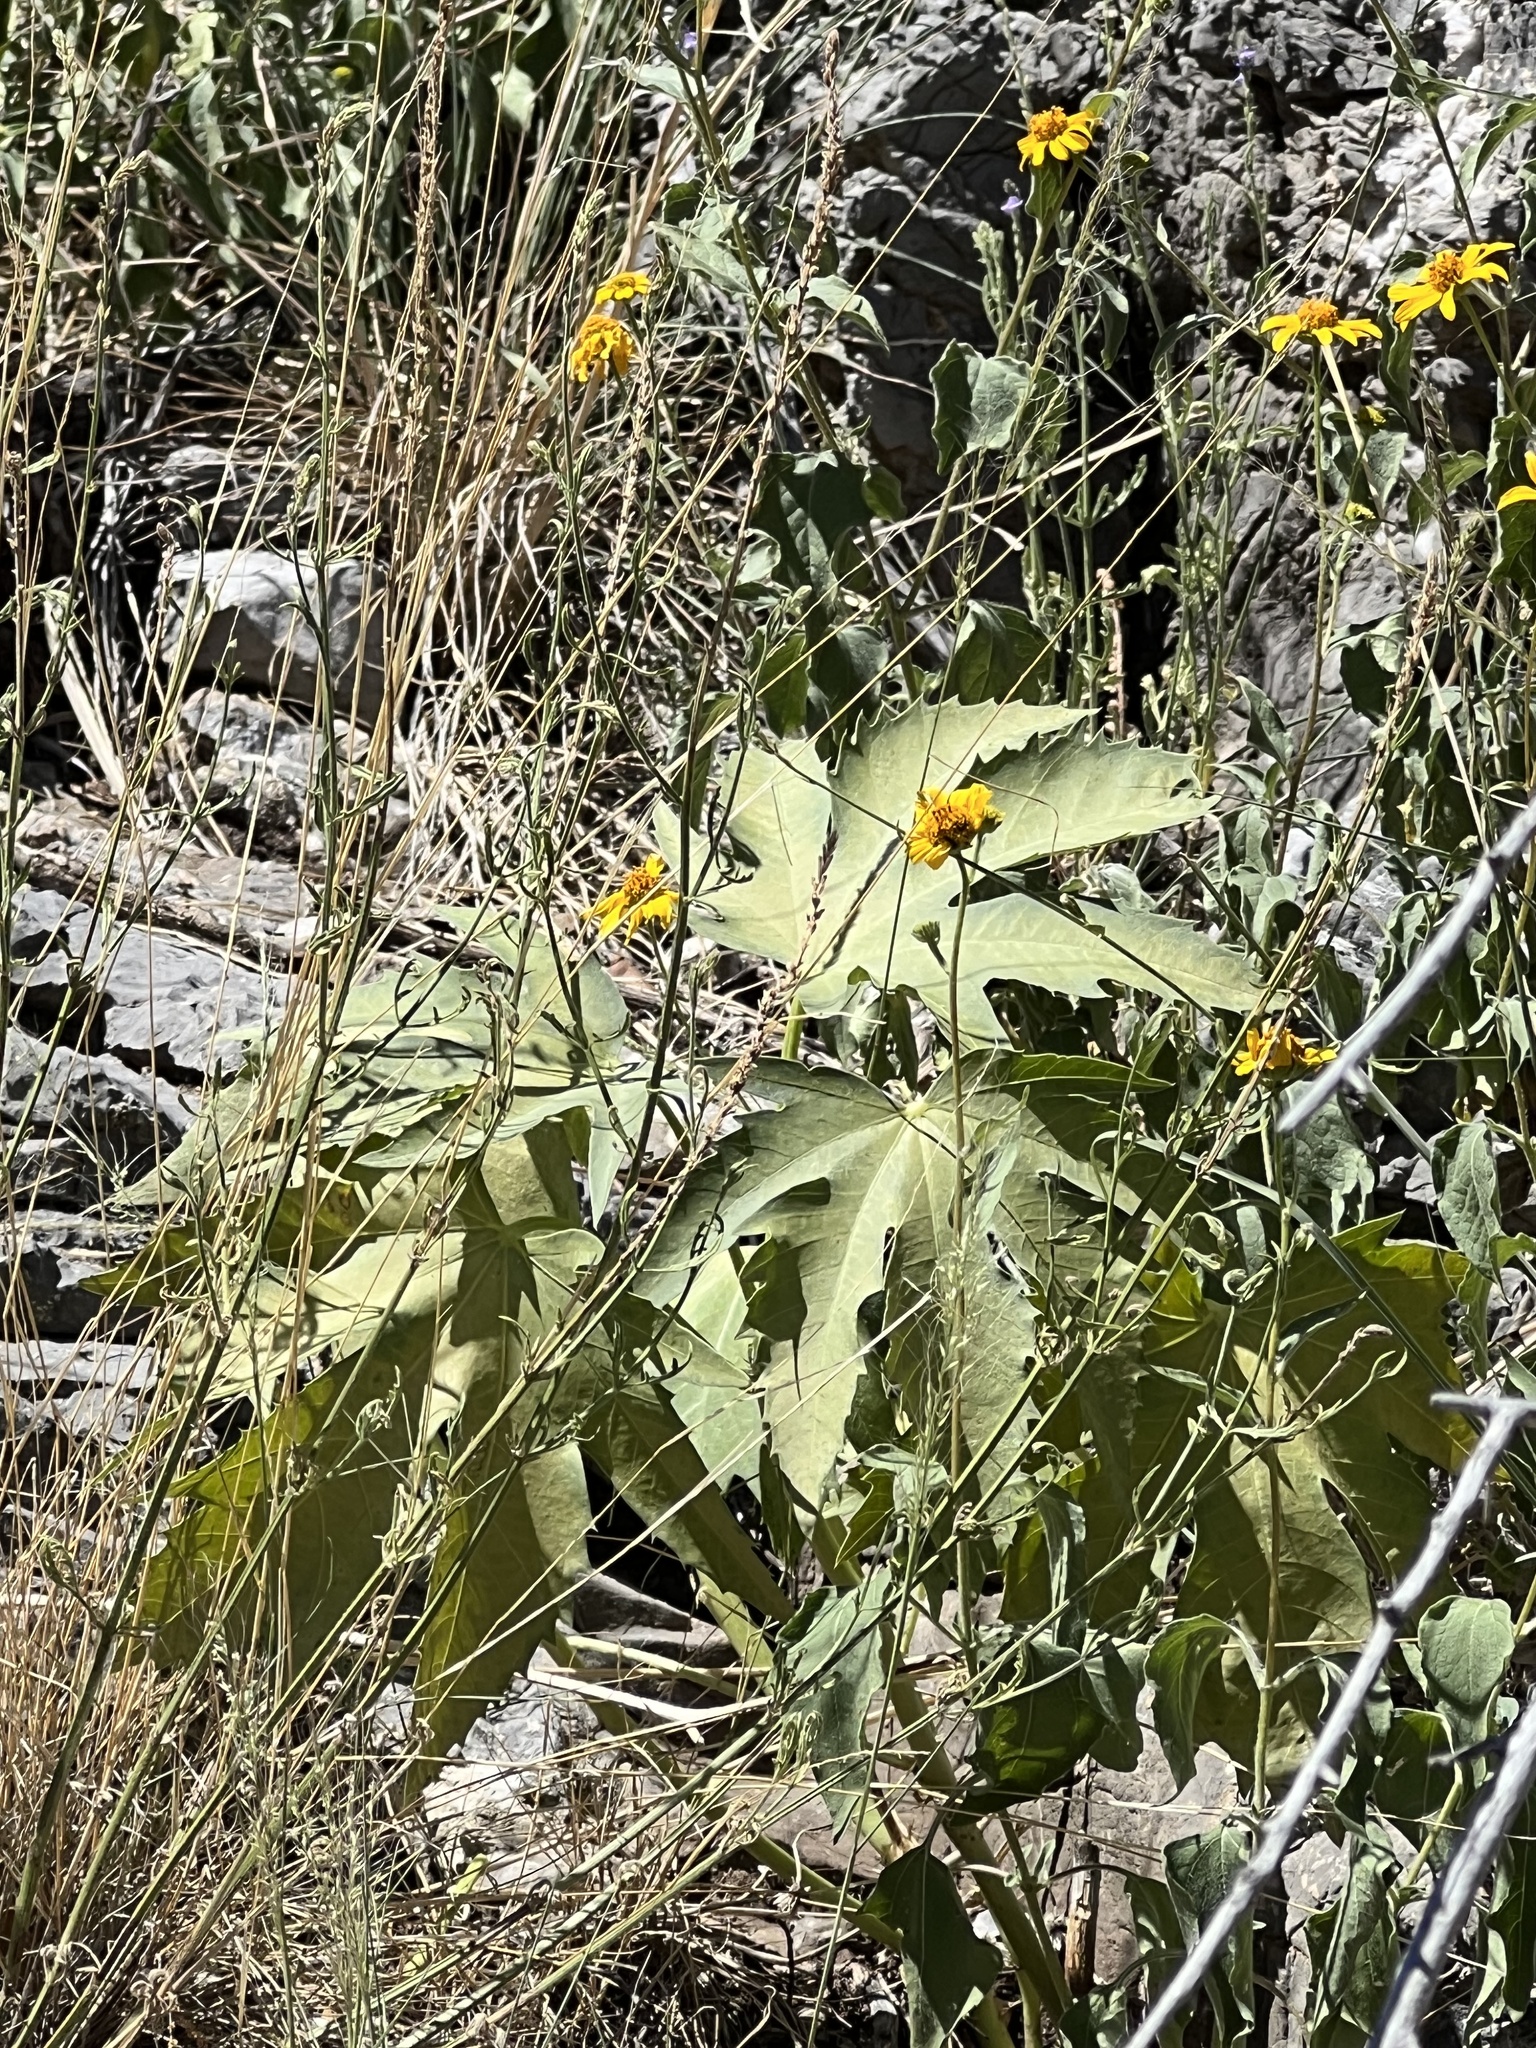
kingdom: Plantae
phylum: Tracheophyta
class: Magnoliopsida
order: Malpighiales
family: Euphorbiaceae
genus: Jatropha
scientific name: Jatropha macrorhiza
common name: Ragged nettlespurge
